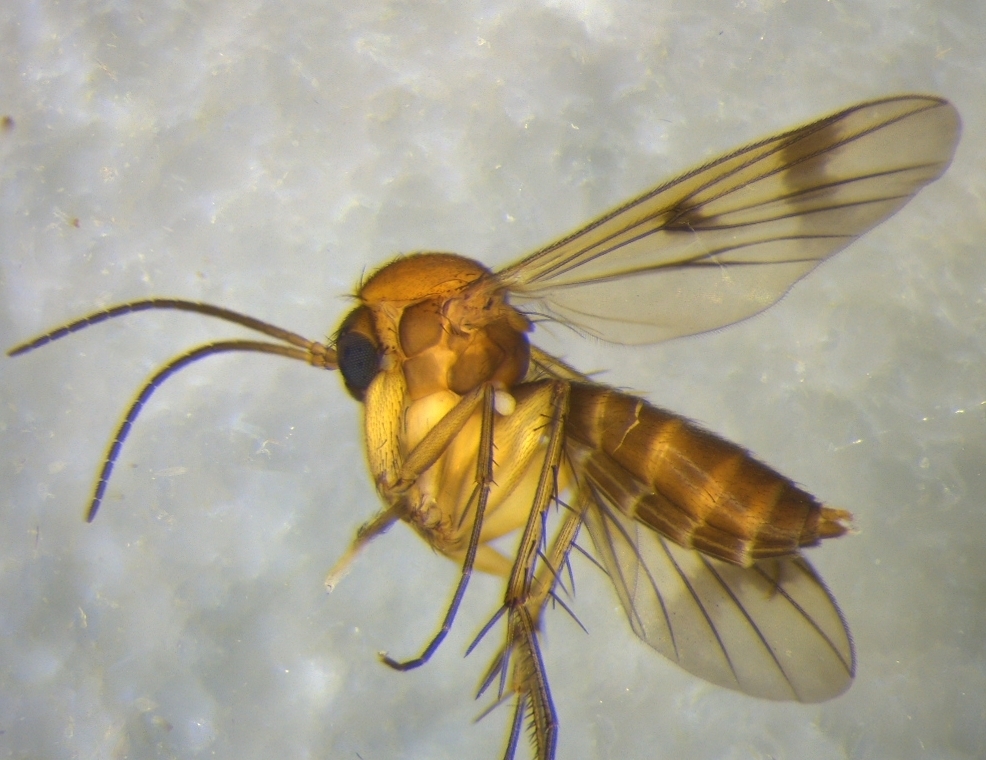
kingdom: Animalia
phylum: Arthropoda
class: Insecta
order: Diptera
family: Mycetophilidae
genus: Mycetophila
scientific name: Mycetophila vulgaris
